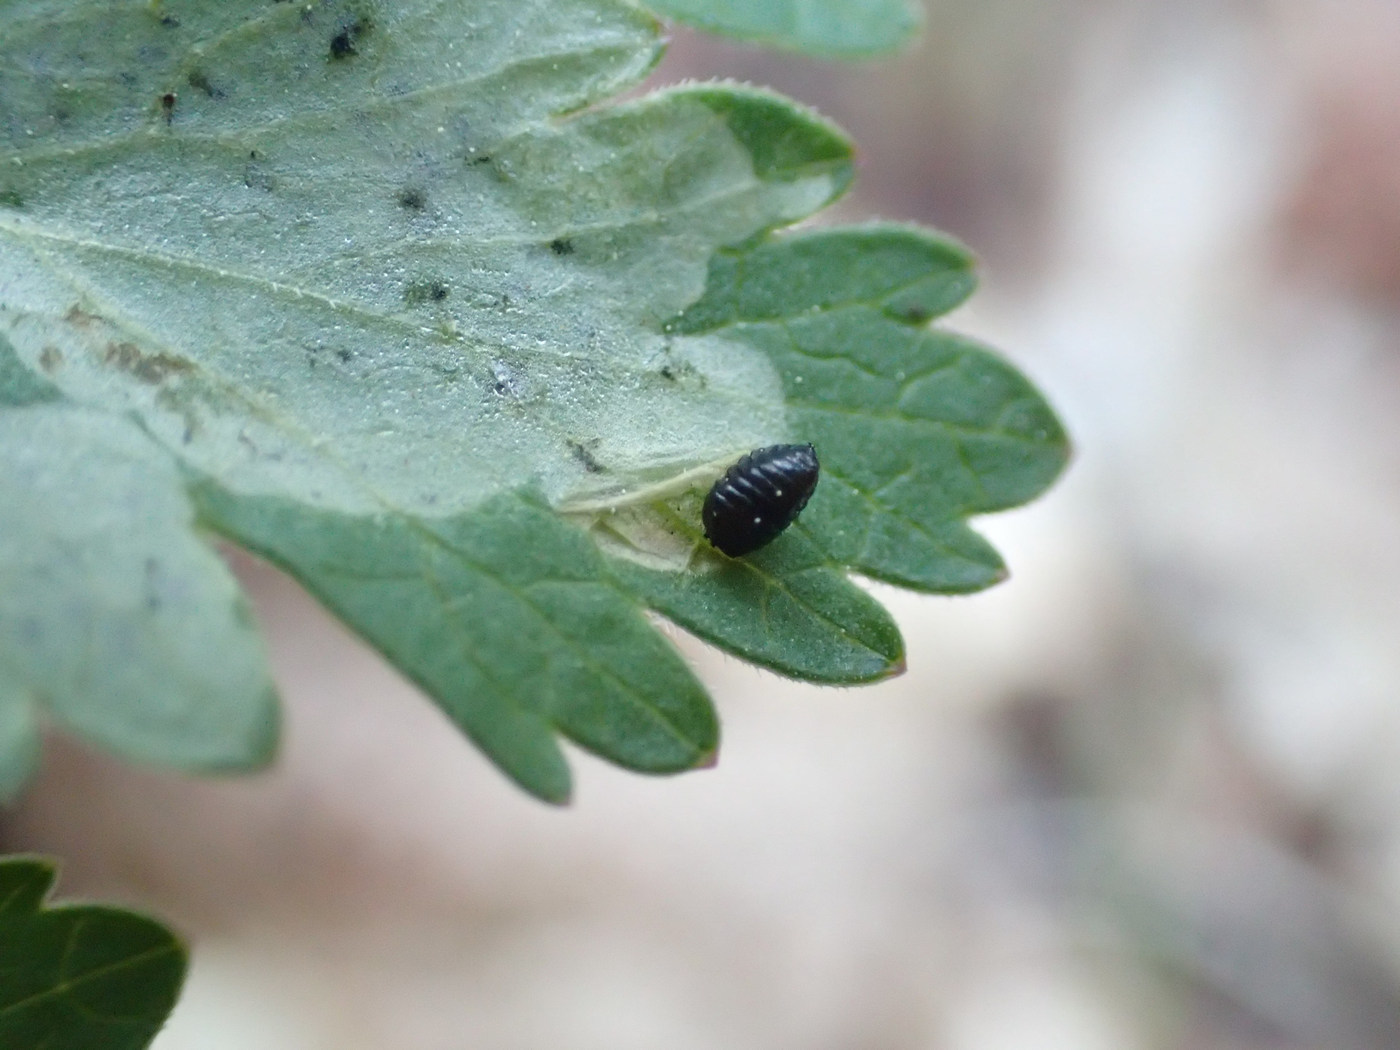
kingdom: Animalia
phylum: Arthropoda
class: Insecta
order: Diptera
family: Agromyzidae
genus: Phytomyza
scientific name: Phytomyza ziziae
